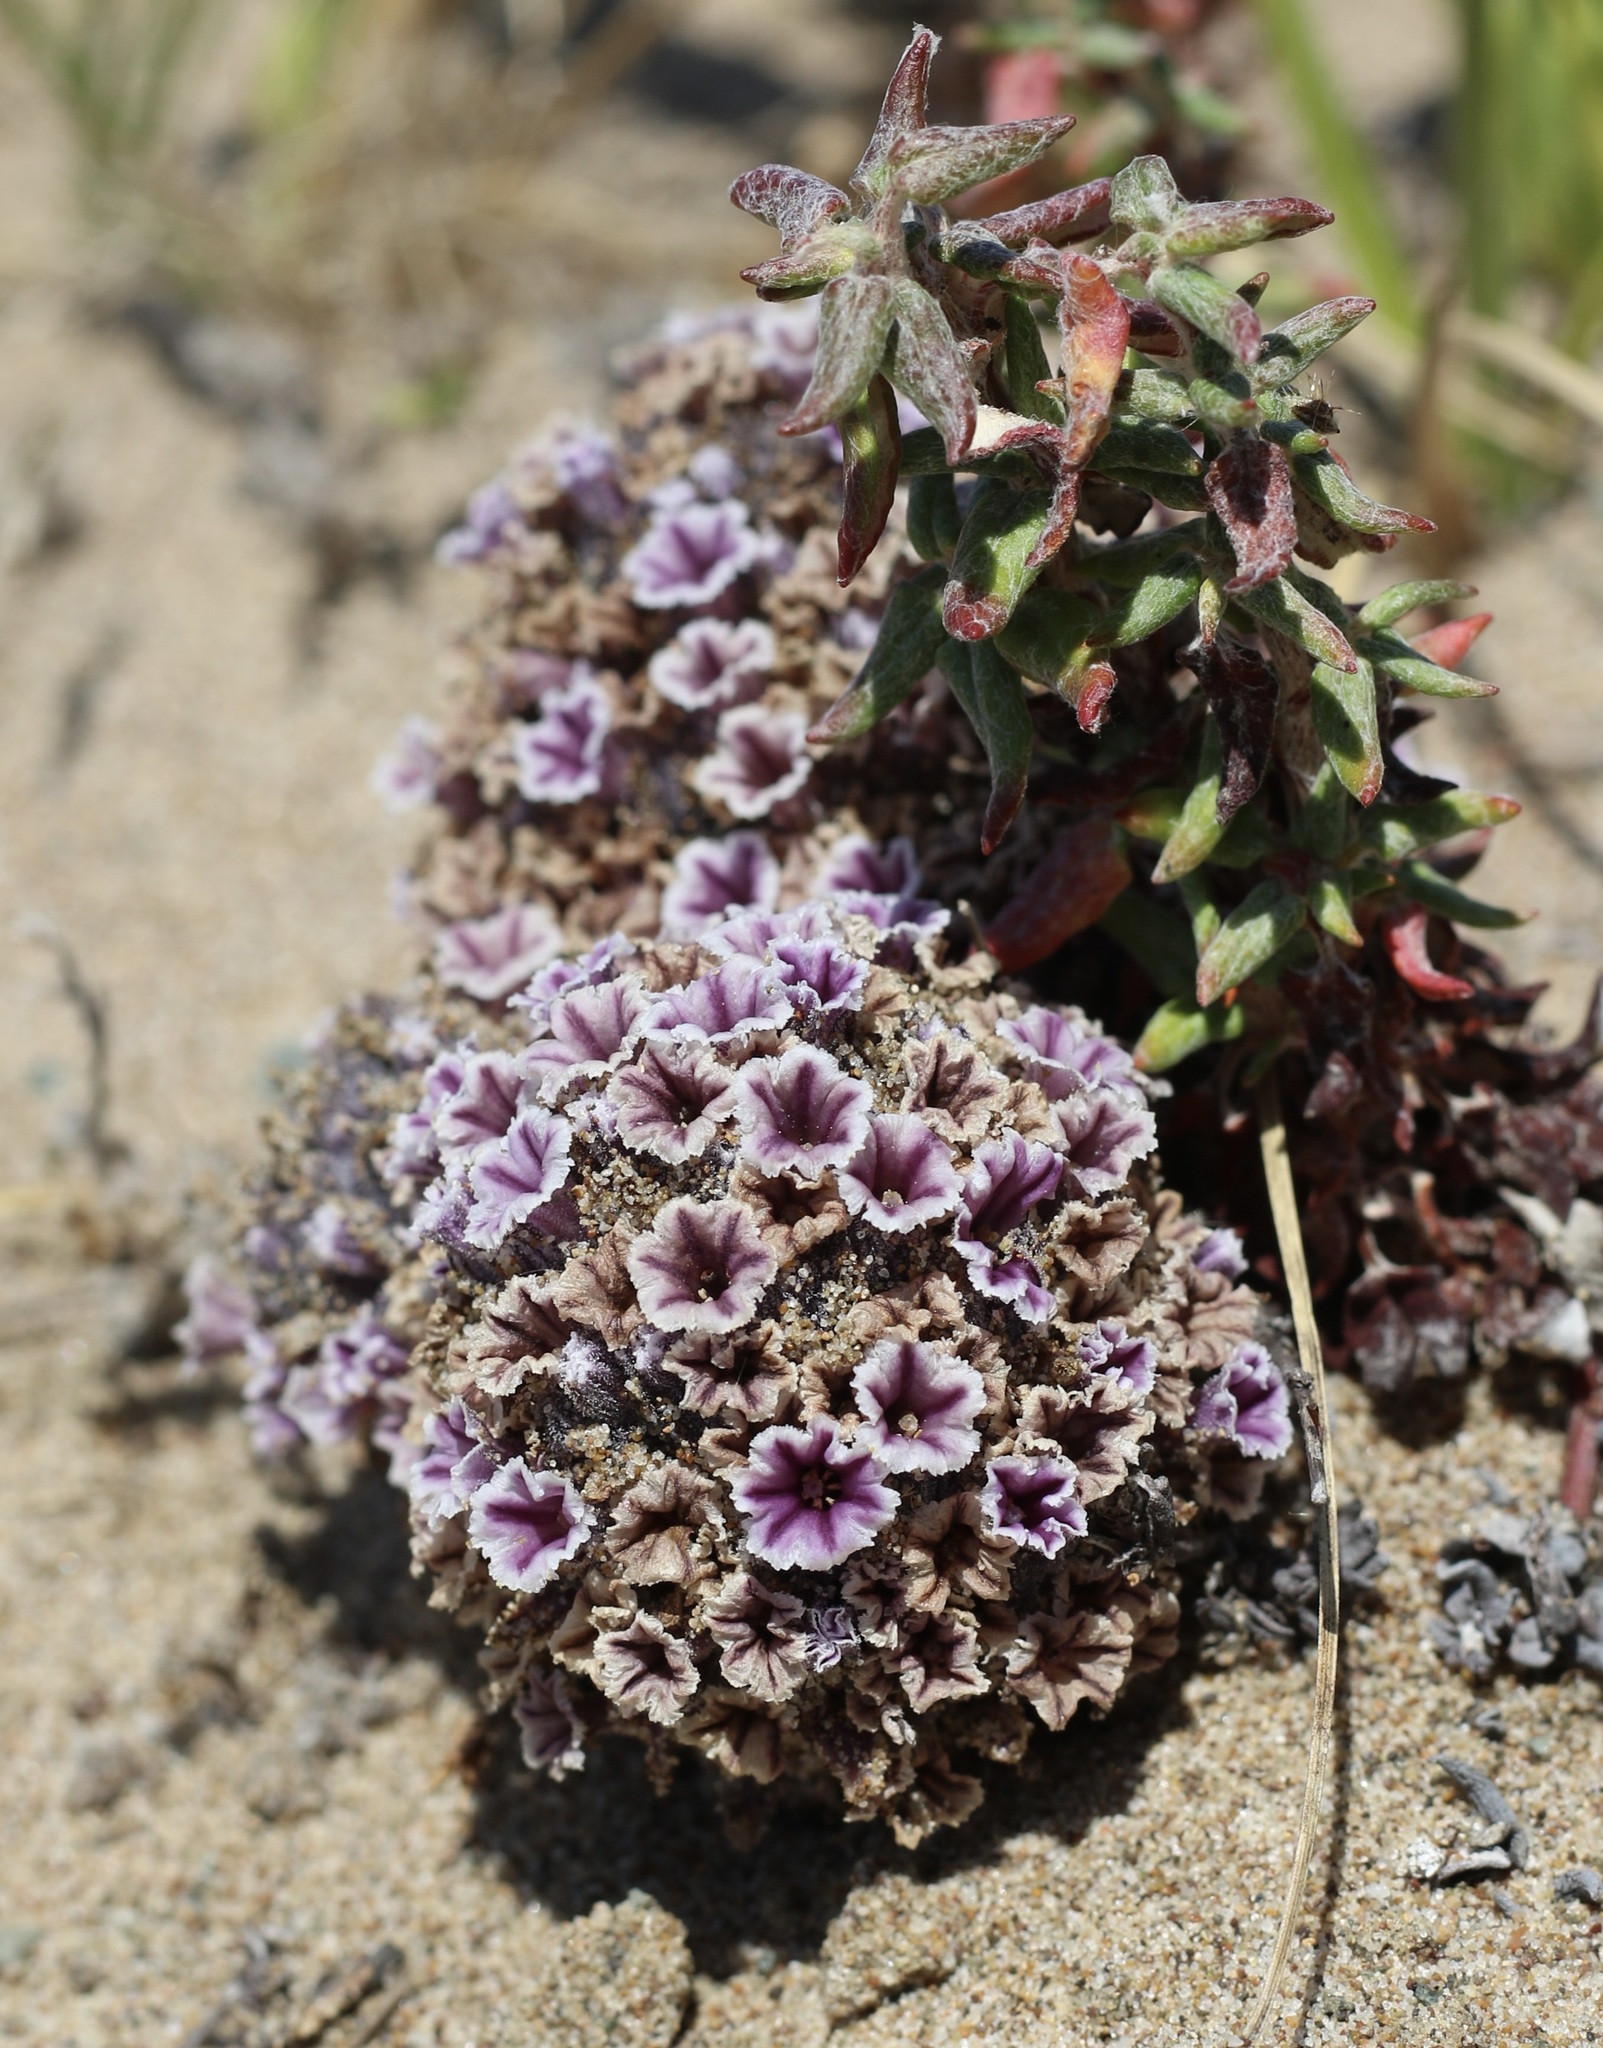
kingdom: Plantae
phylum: Tracheophyta
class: Magnoliopsida
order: Boraginales
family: Lennoaceae
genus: Pholisma
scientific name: Pholisma arenarium
